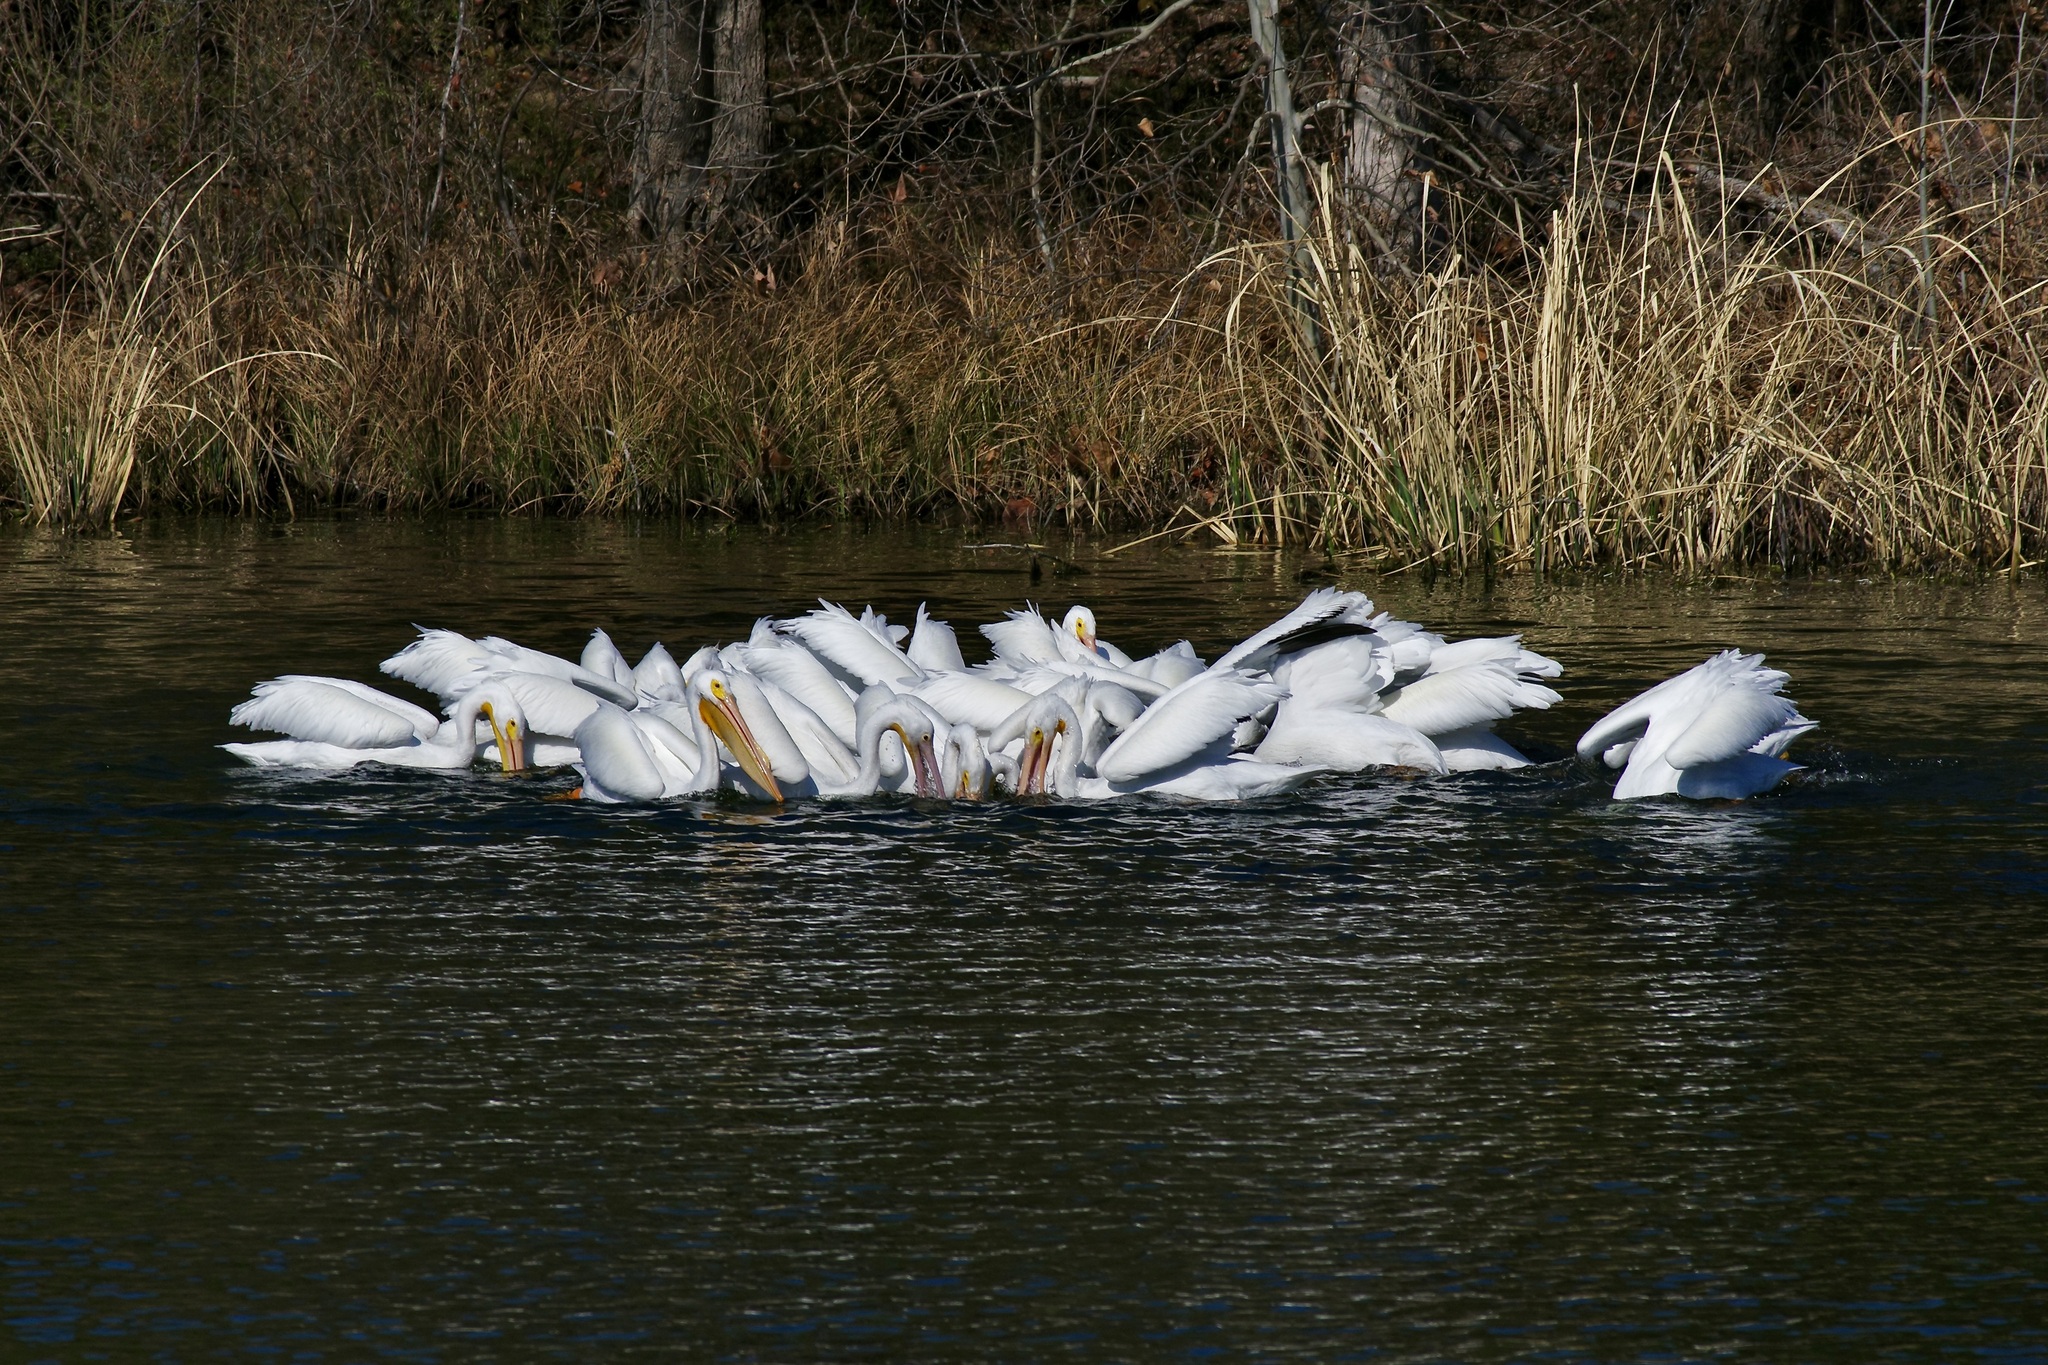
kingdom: Animalia
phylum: Chordata
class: Aves
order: Pelecaniformes
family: Pelecanidae
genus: Pelecanus
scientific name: Pelecanus erythrorhynchos
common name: American white pelican
